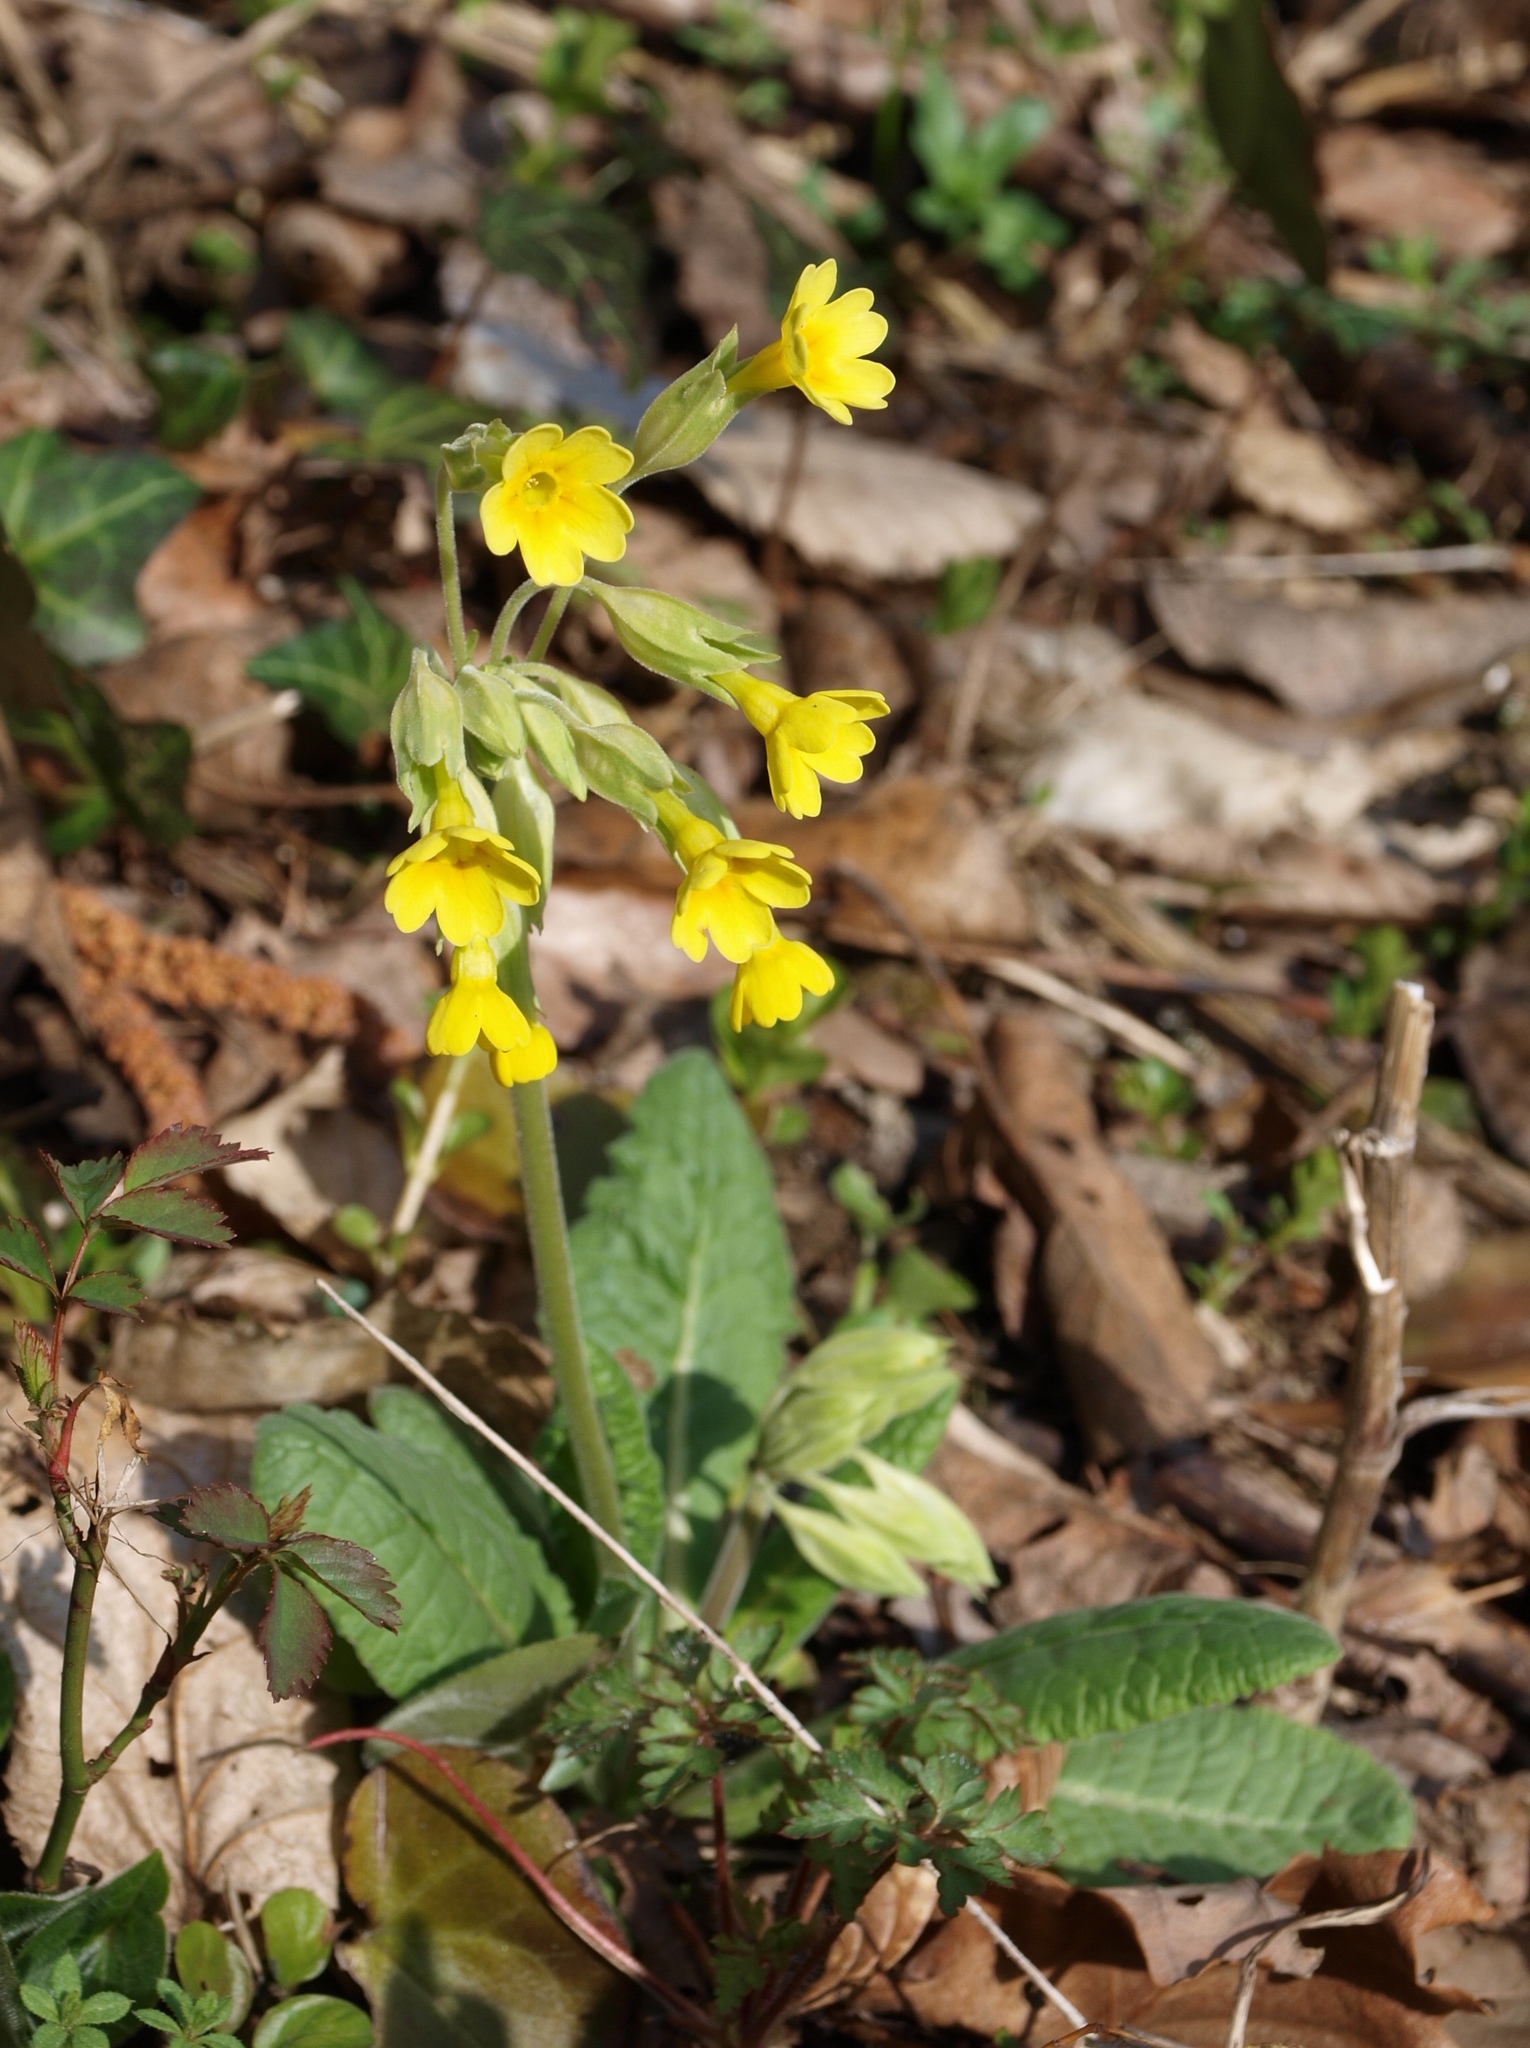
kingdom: Plantae
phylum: Tracheophyta
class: Magnoliopsida
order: Ericales
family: Primulaceae
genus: Primula
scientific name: Primula veris
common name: Cowslip
